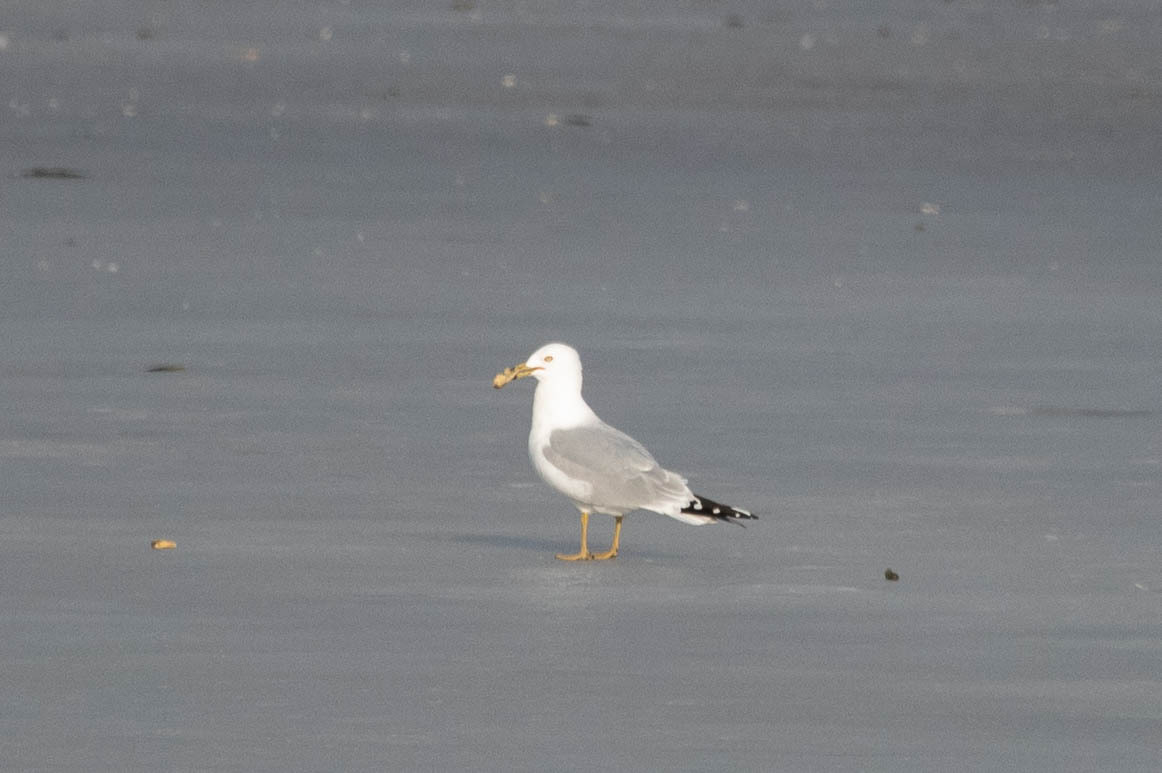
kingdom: Animalia
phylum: Chordata
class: Aves
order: Charadriiformes
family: Laridae
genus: Larus
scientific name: Larus delawarensis
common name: Ring-billed gull
